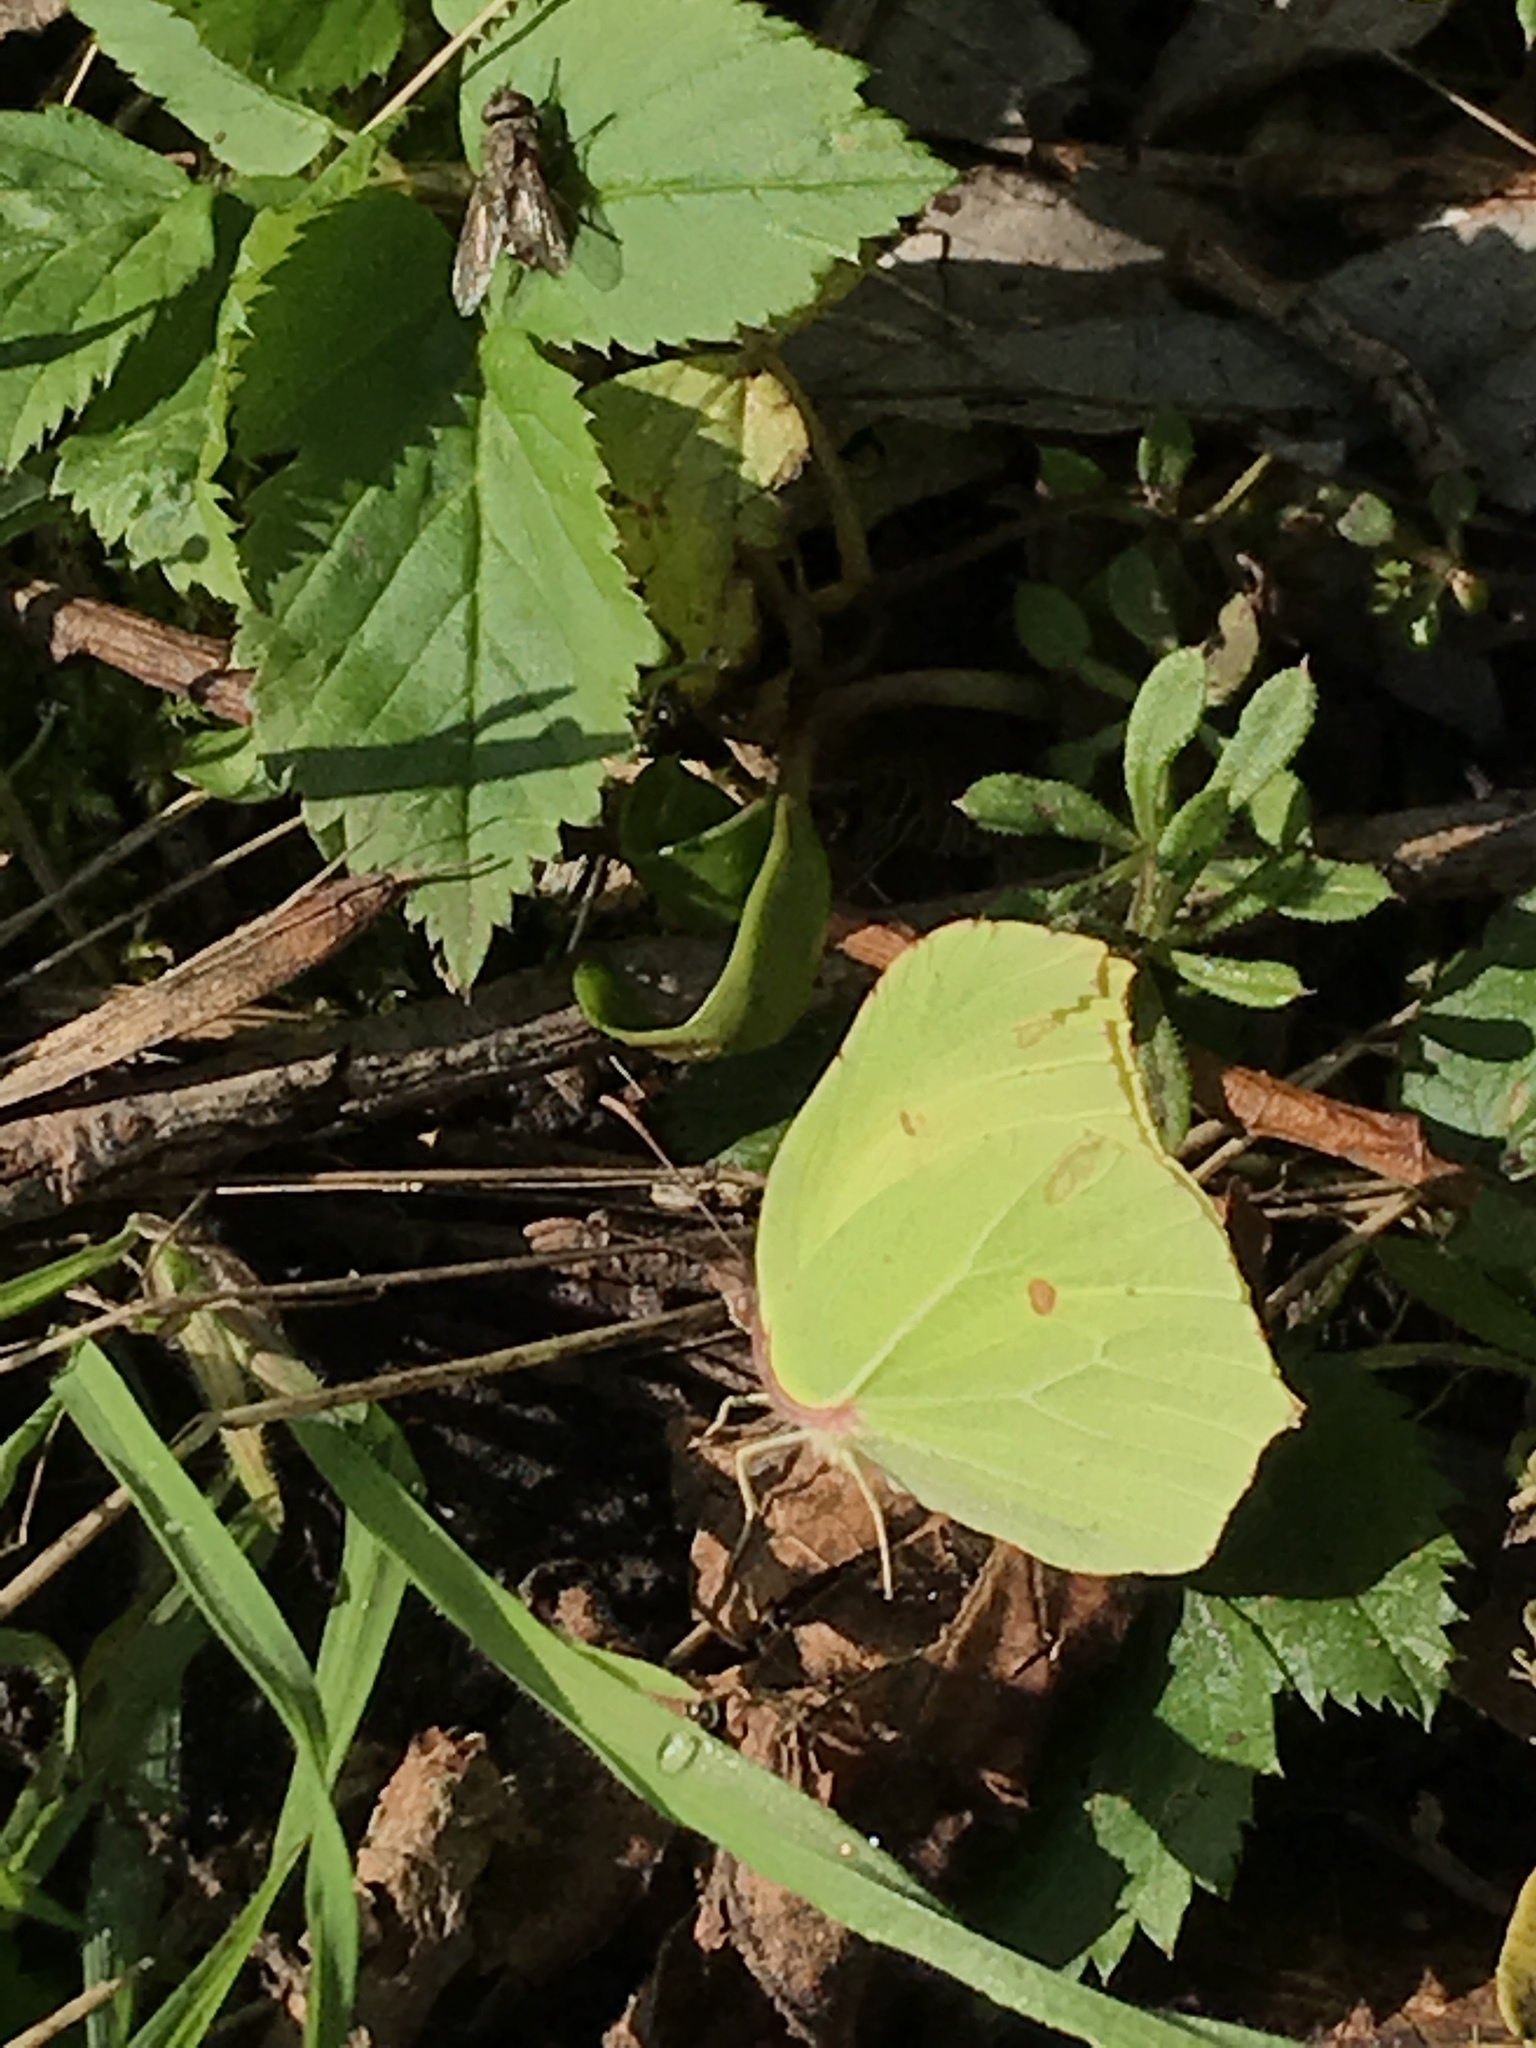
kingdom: Animalia
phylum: Arthropoda
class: Insecta
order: Lepidoptera
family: Pieridae
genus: Gonepteryx
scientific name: Gonepteryx rhamni
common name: Brimstone
